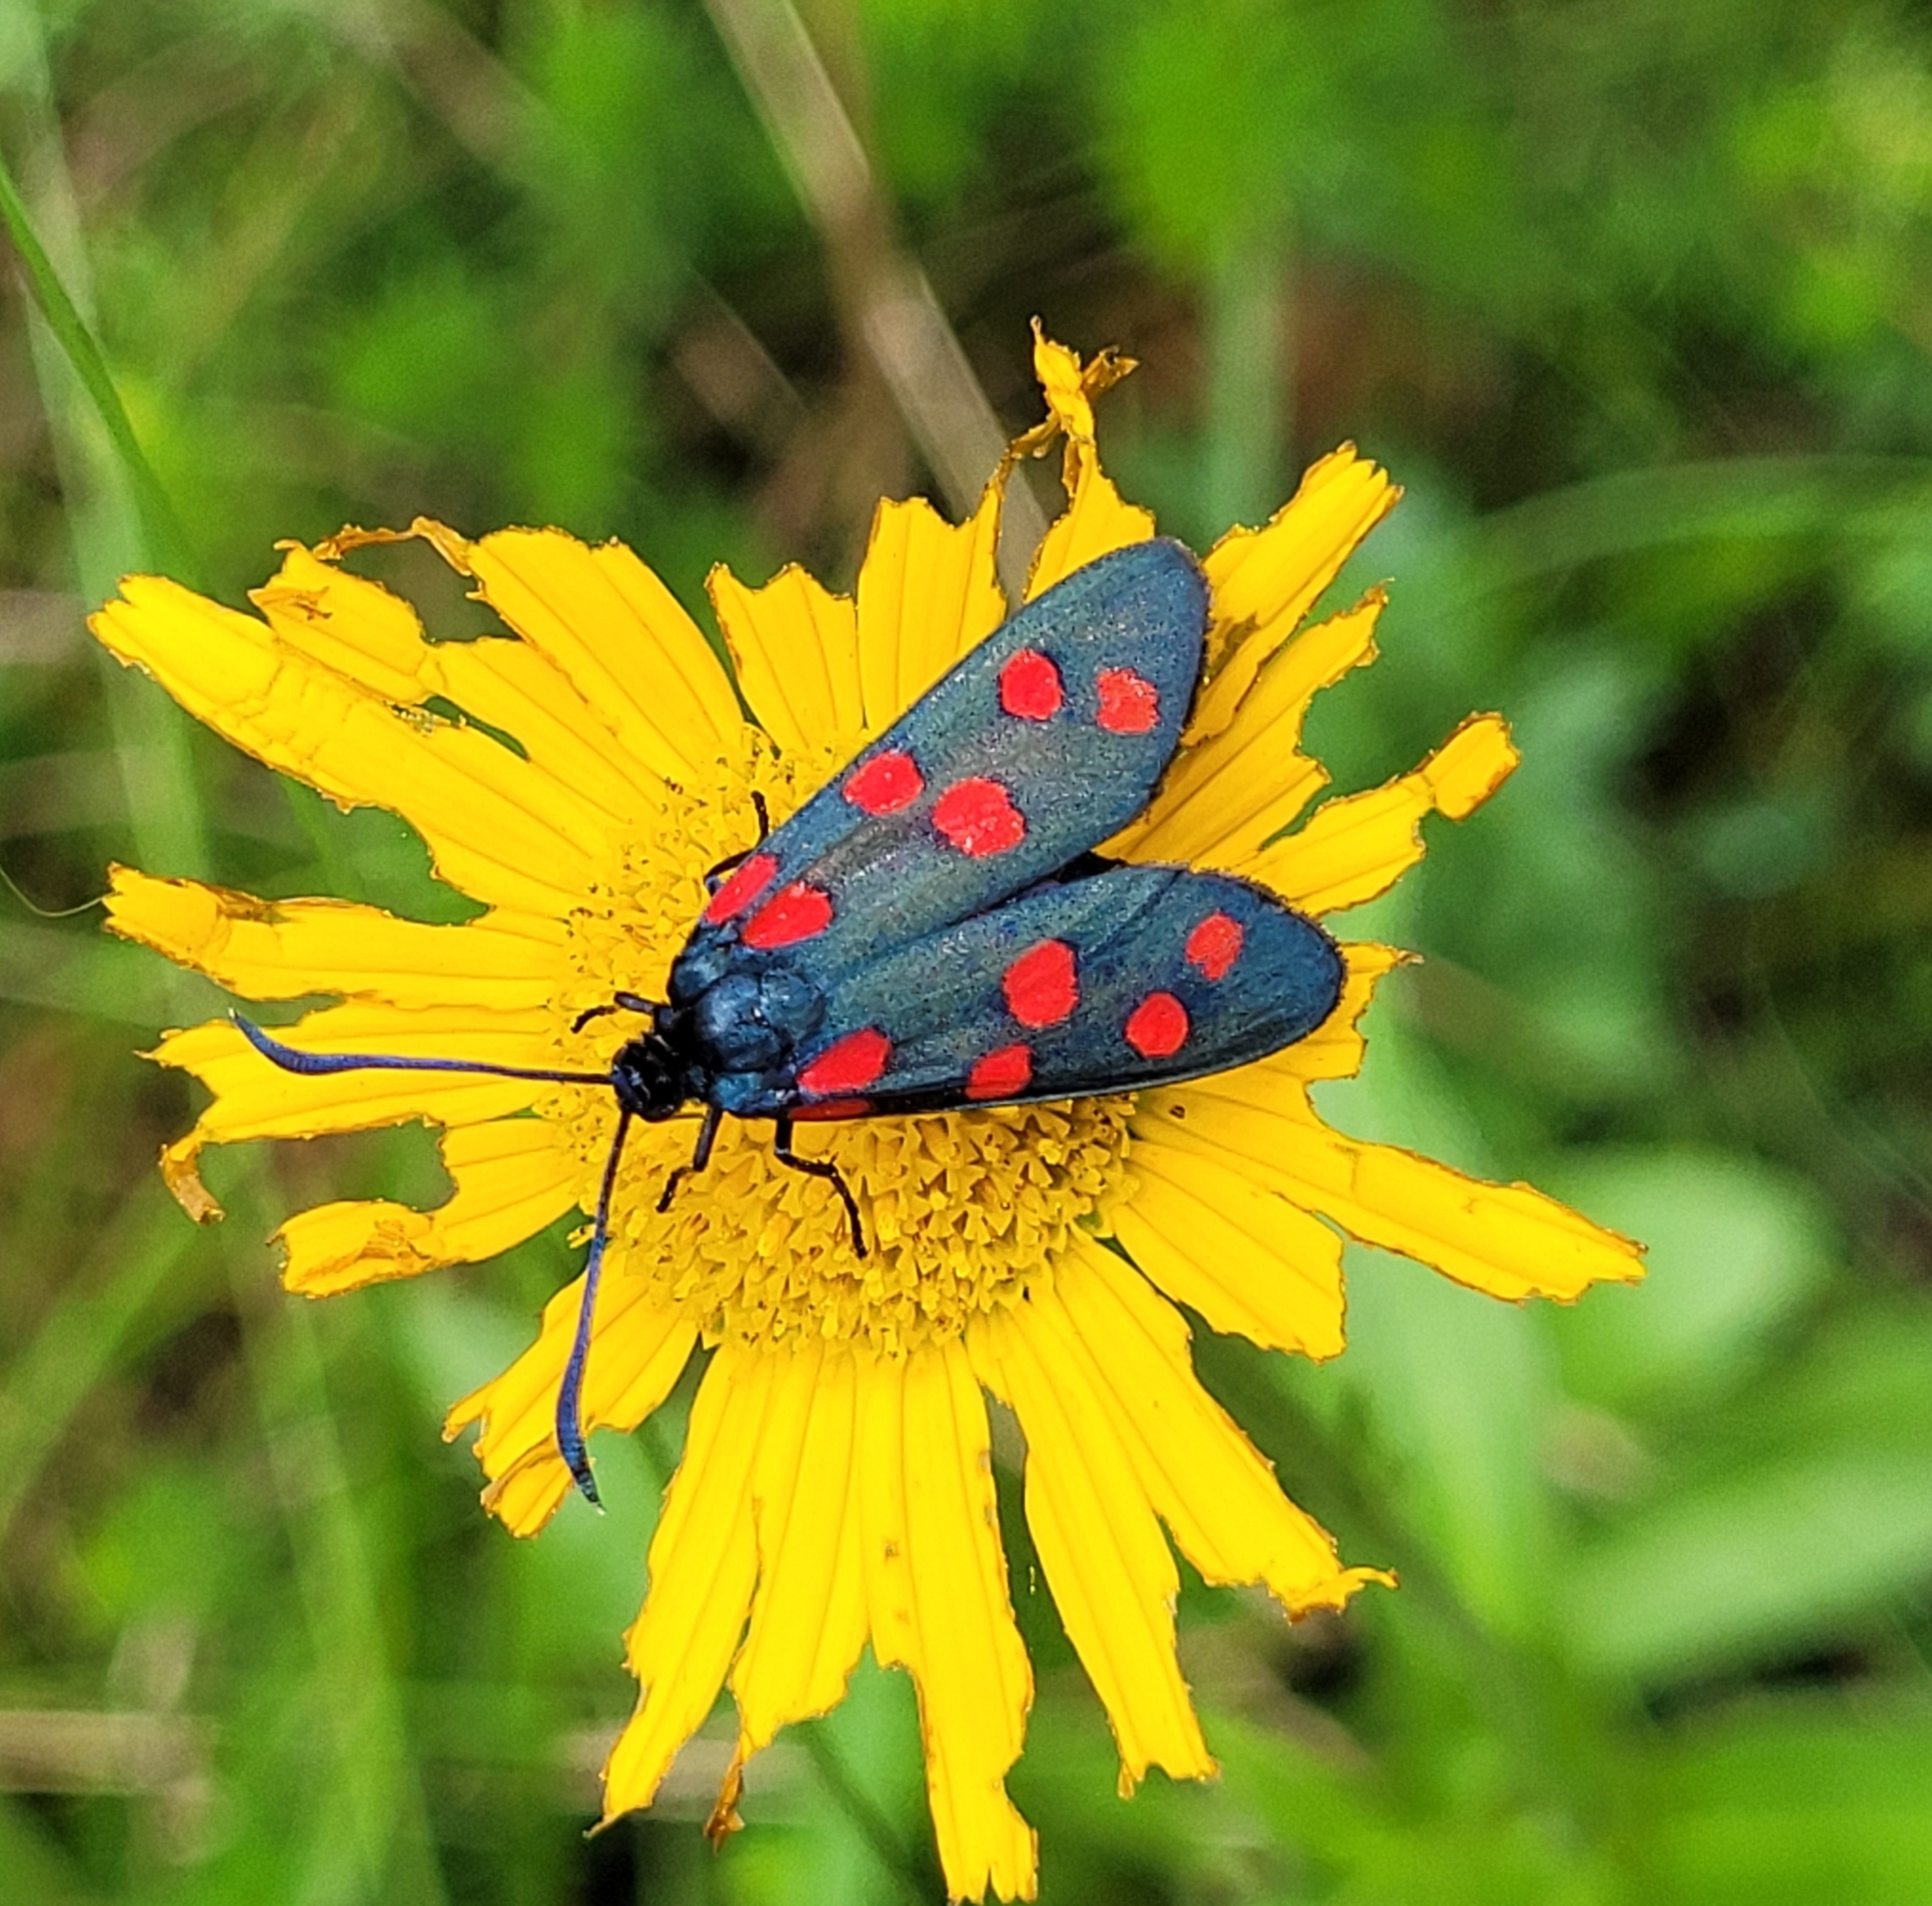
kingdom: Animalia
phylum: Arthropoda
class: Insecta
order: Lepidoptera
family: Zygaenidae
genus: Zygaena
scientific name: Zygaena transalpina
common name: Southern six spot burnet
